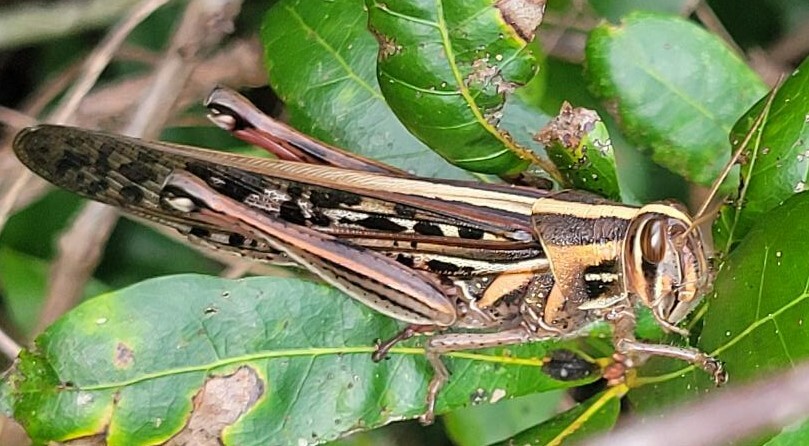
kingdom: Animalia
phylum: Arthropoda
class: Insecta
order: Orthoptera
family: Acrididae
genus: Schistocerca
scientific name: Schistocerca americana
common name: American bird locust
